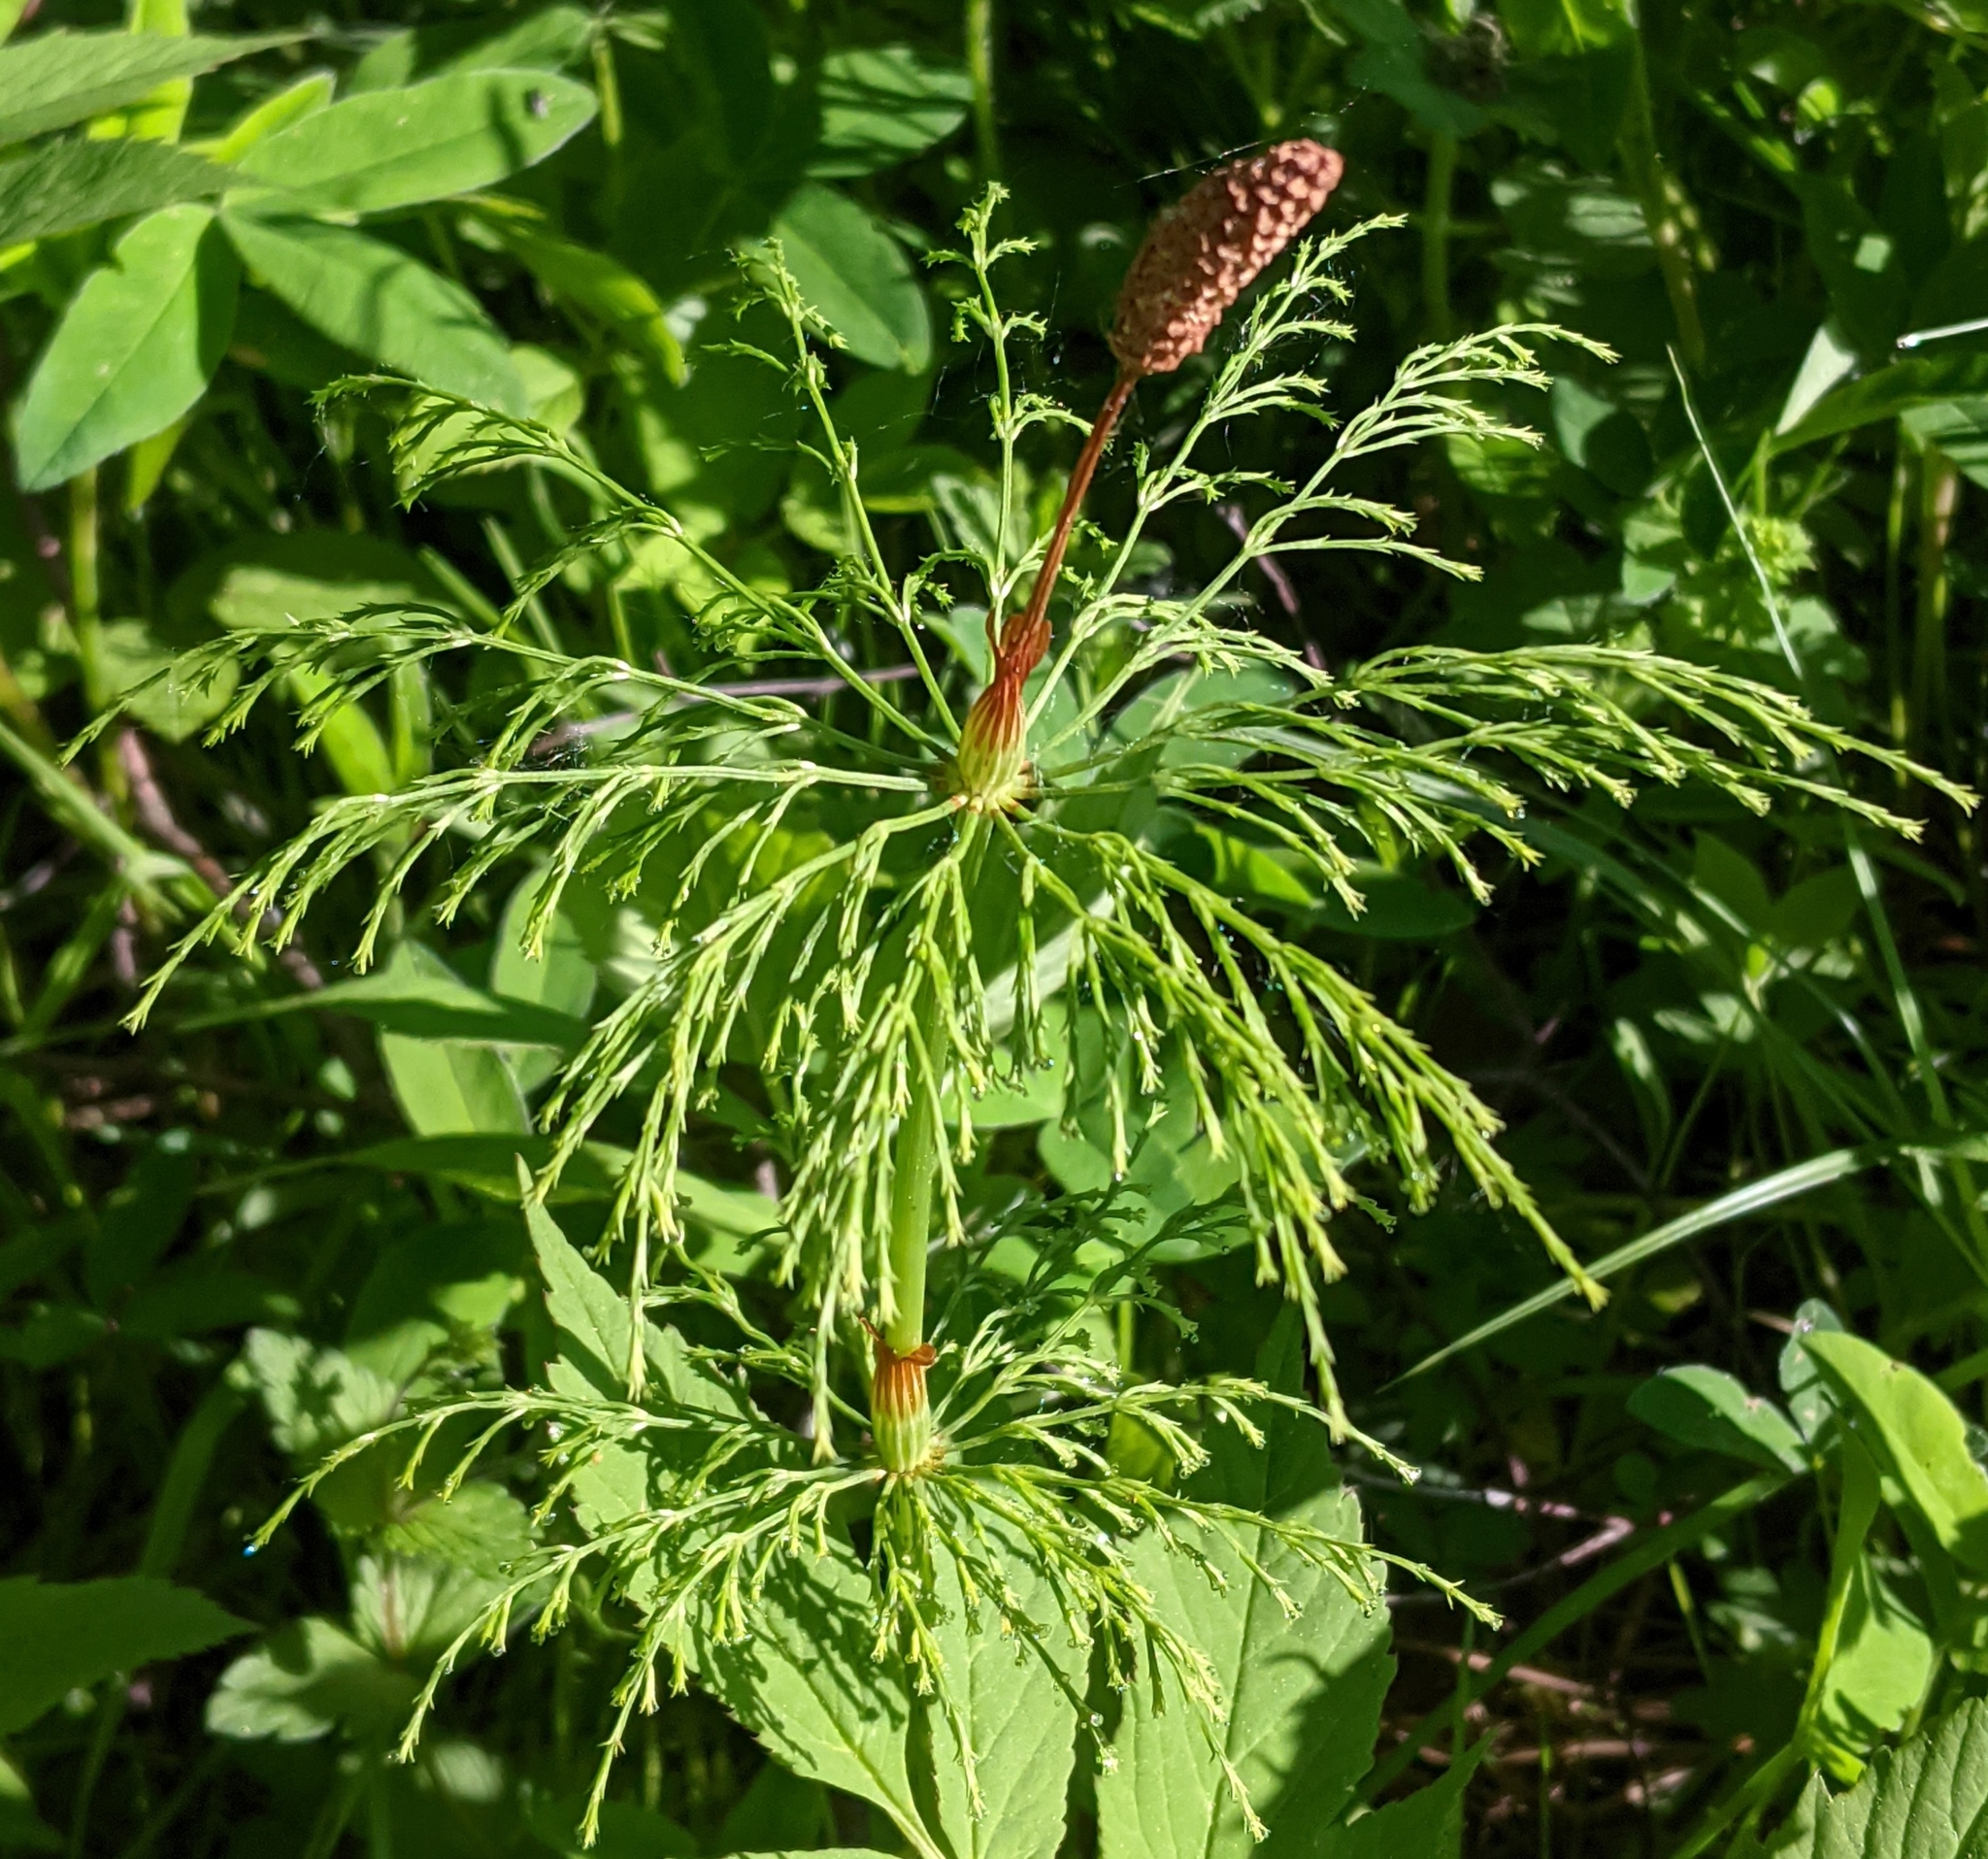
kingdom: Plantae
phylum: Tracheophyta
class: Polypodiopsida
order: Equisetales
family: Equisetaceae
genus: Equisetum
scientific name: Equisetum sylvaticum
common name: Wood horsetail
